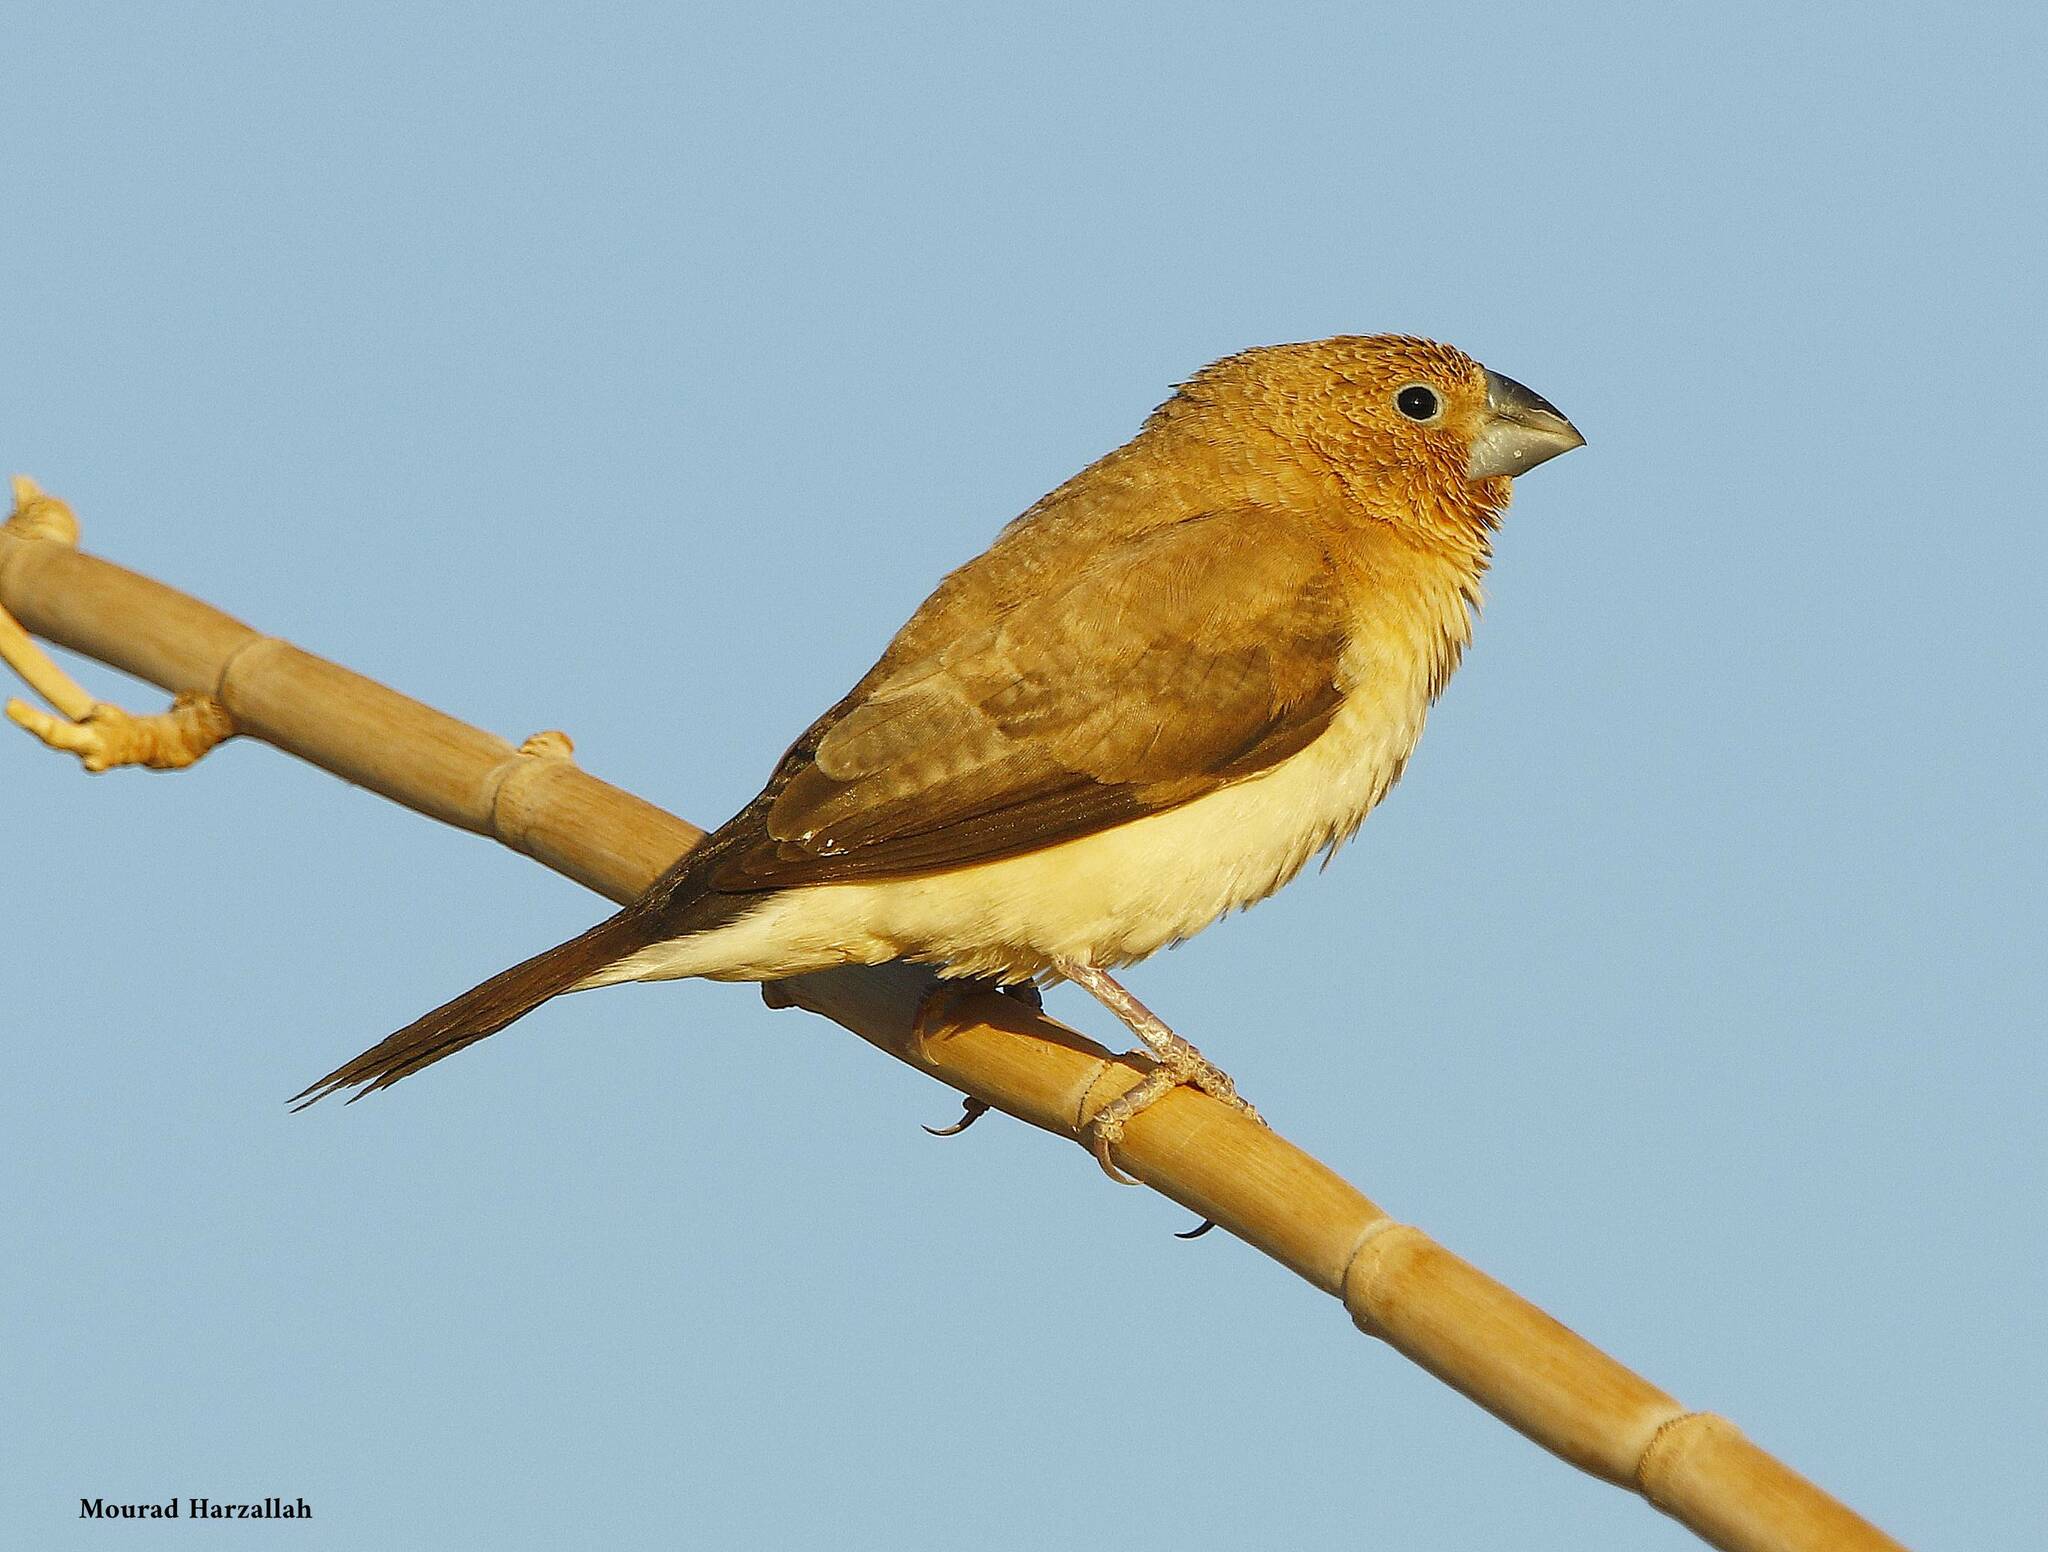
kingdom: Animalia
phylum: Chordata
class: Aves
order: Passeriformes
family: Estrildidae
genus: Euodice
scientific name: Euodice cantans
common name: African silverbill
